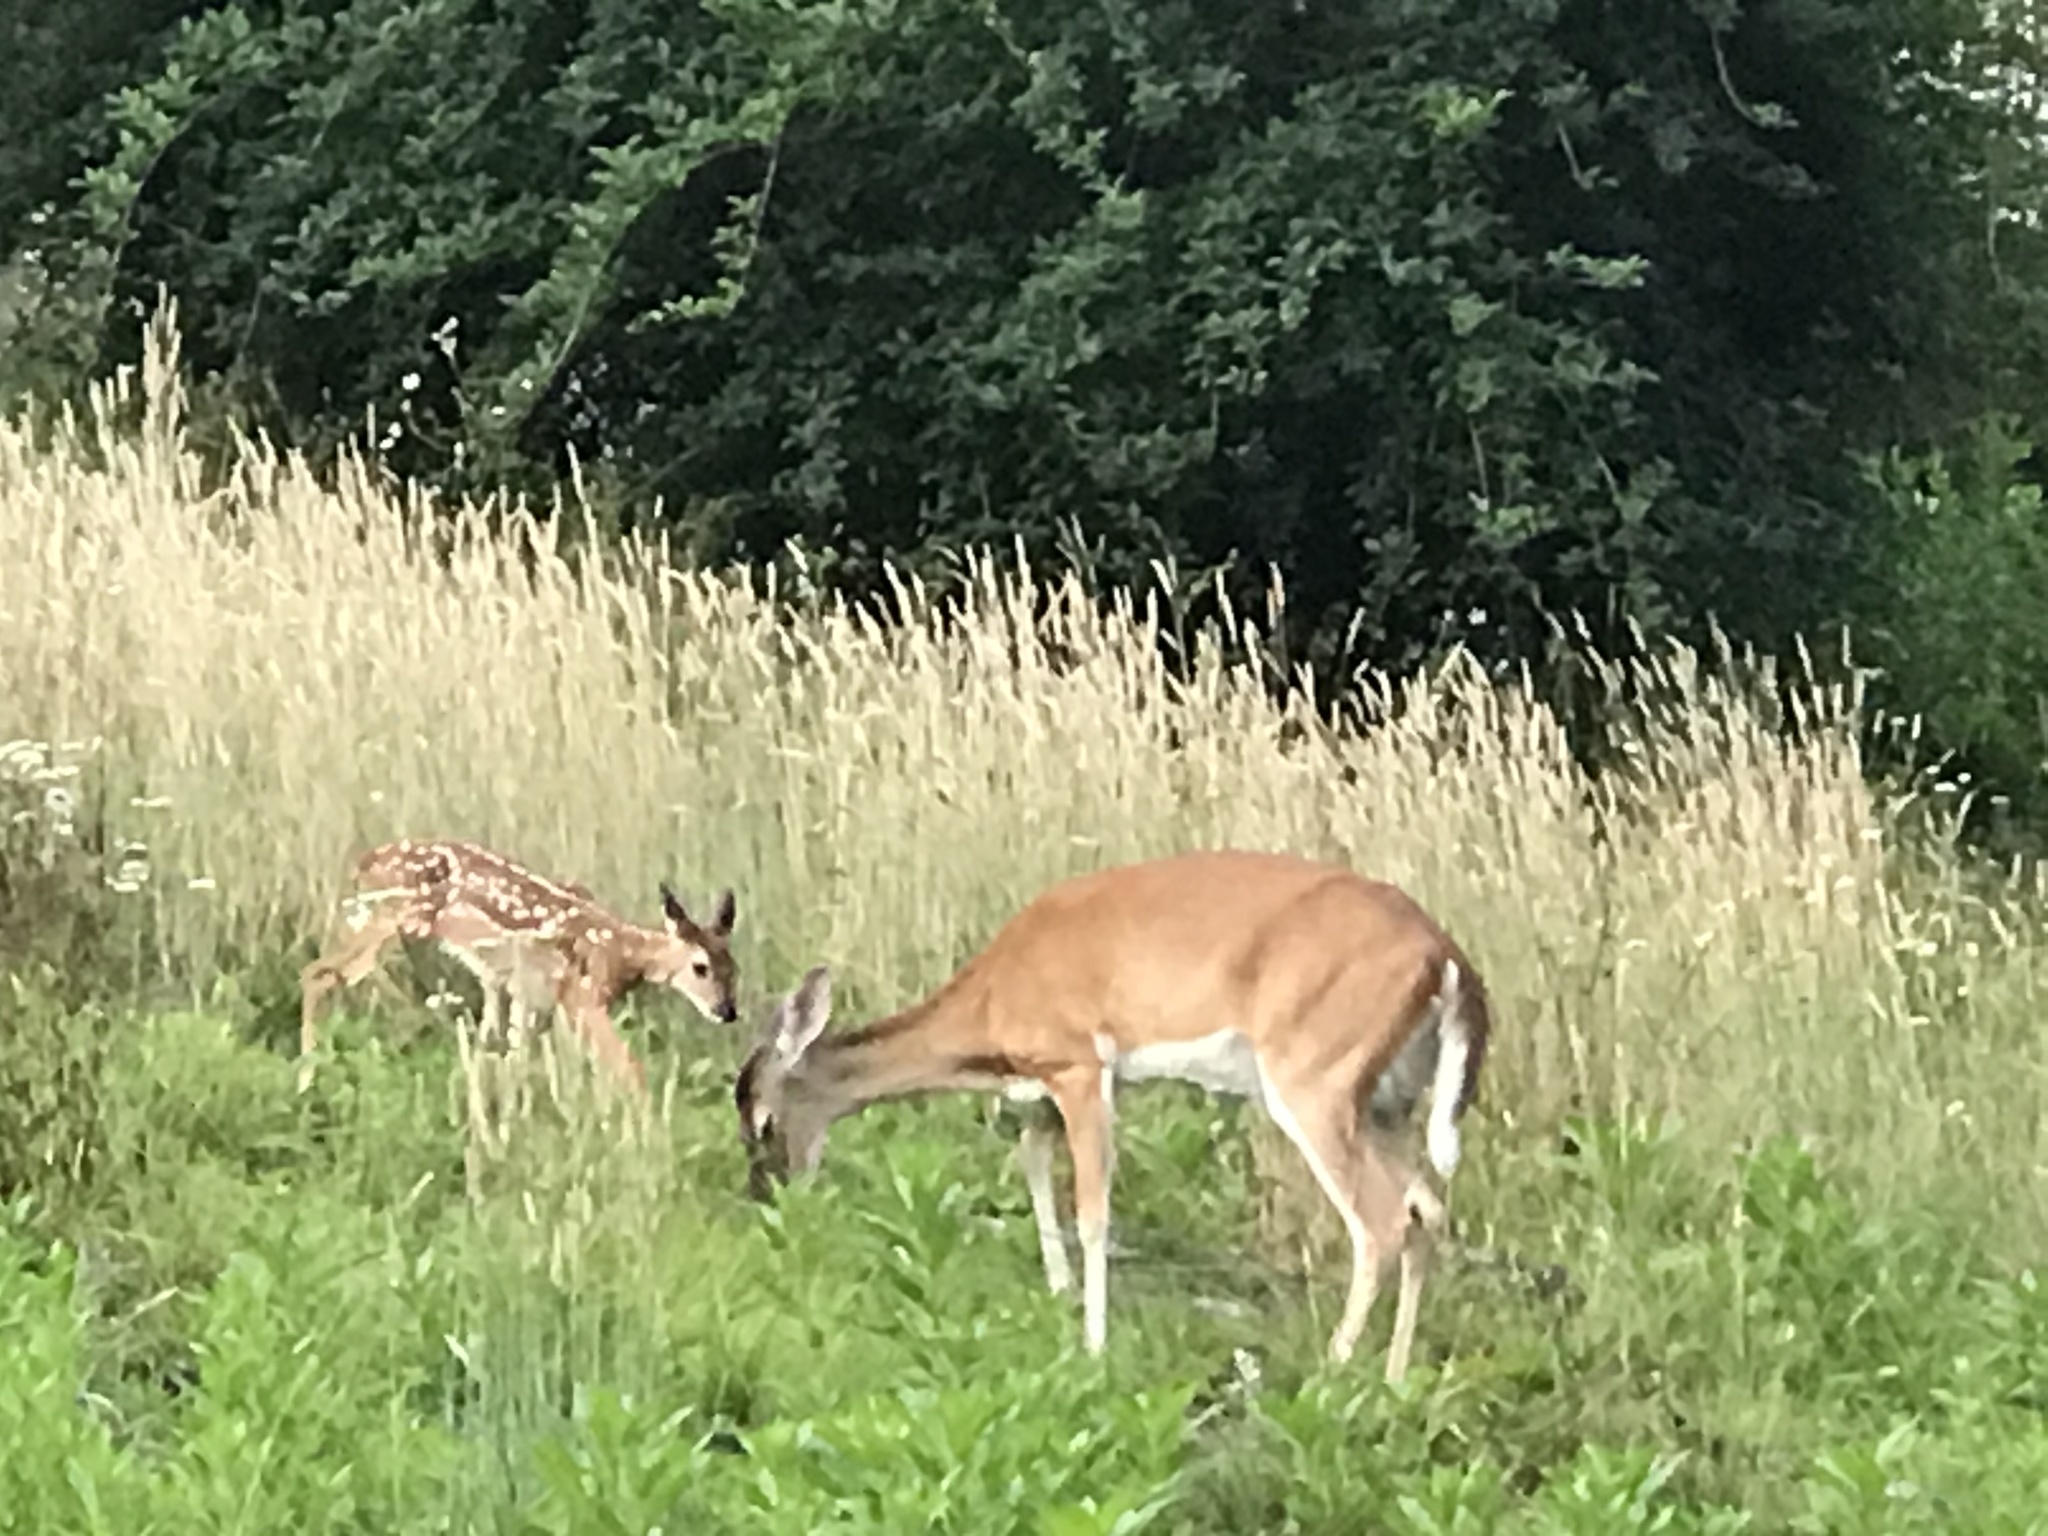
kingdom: Animalia
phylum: Chordata
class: Mammalia
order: Artiodactyla
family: Cervidae
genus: Odocoileus
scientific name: Odocoileus virginianus
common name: White-tailed deer
